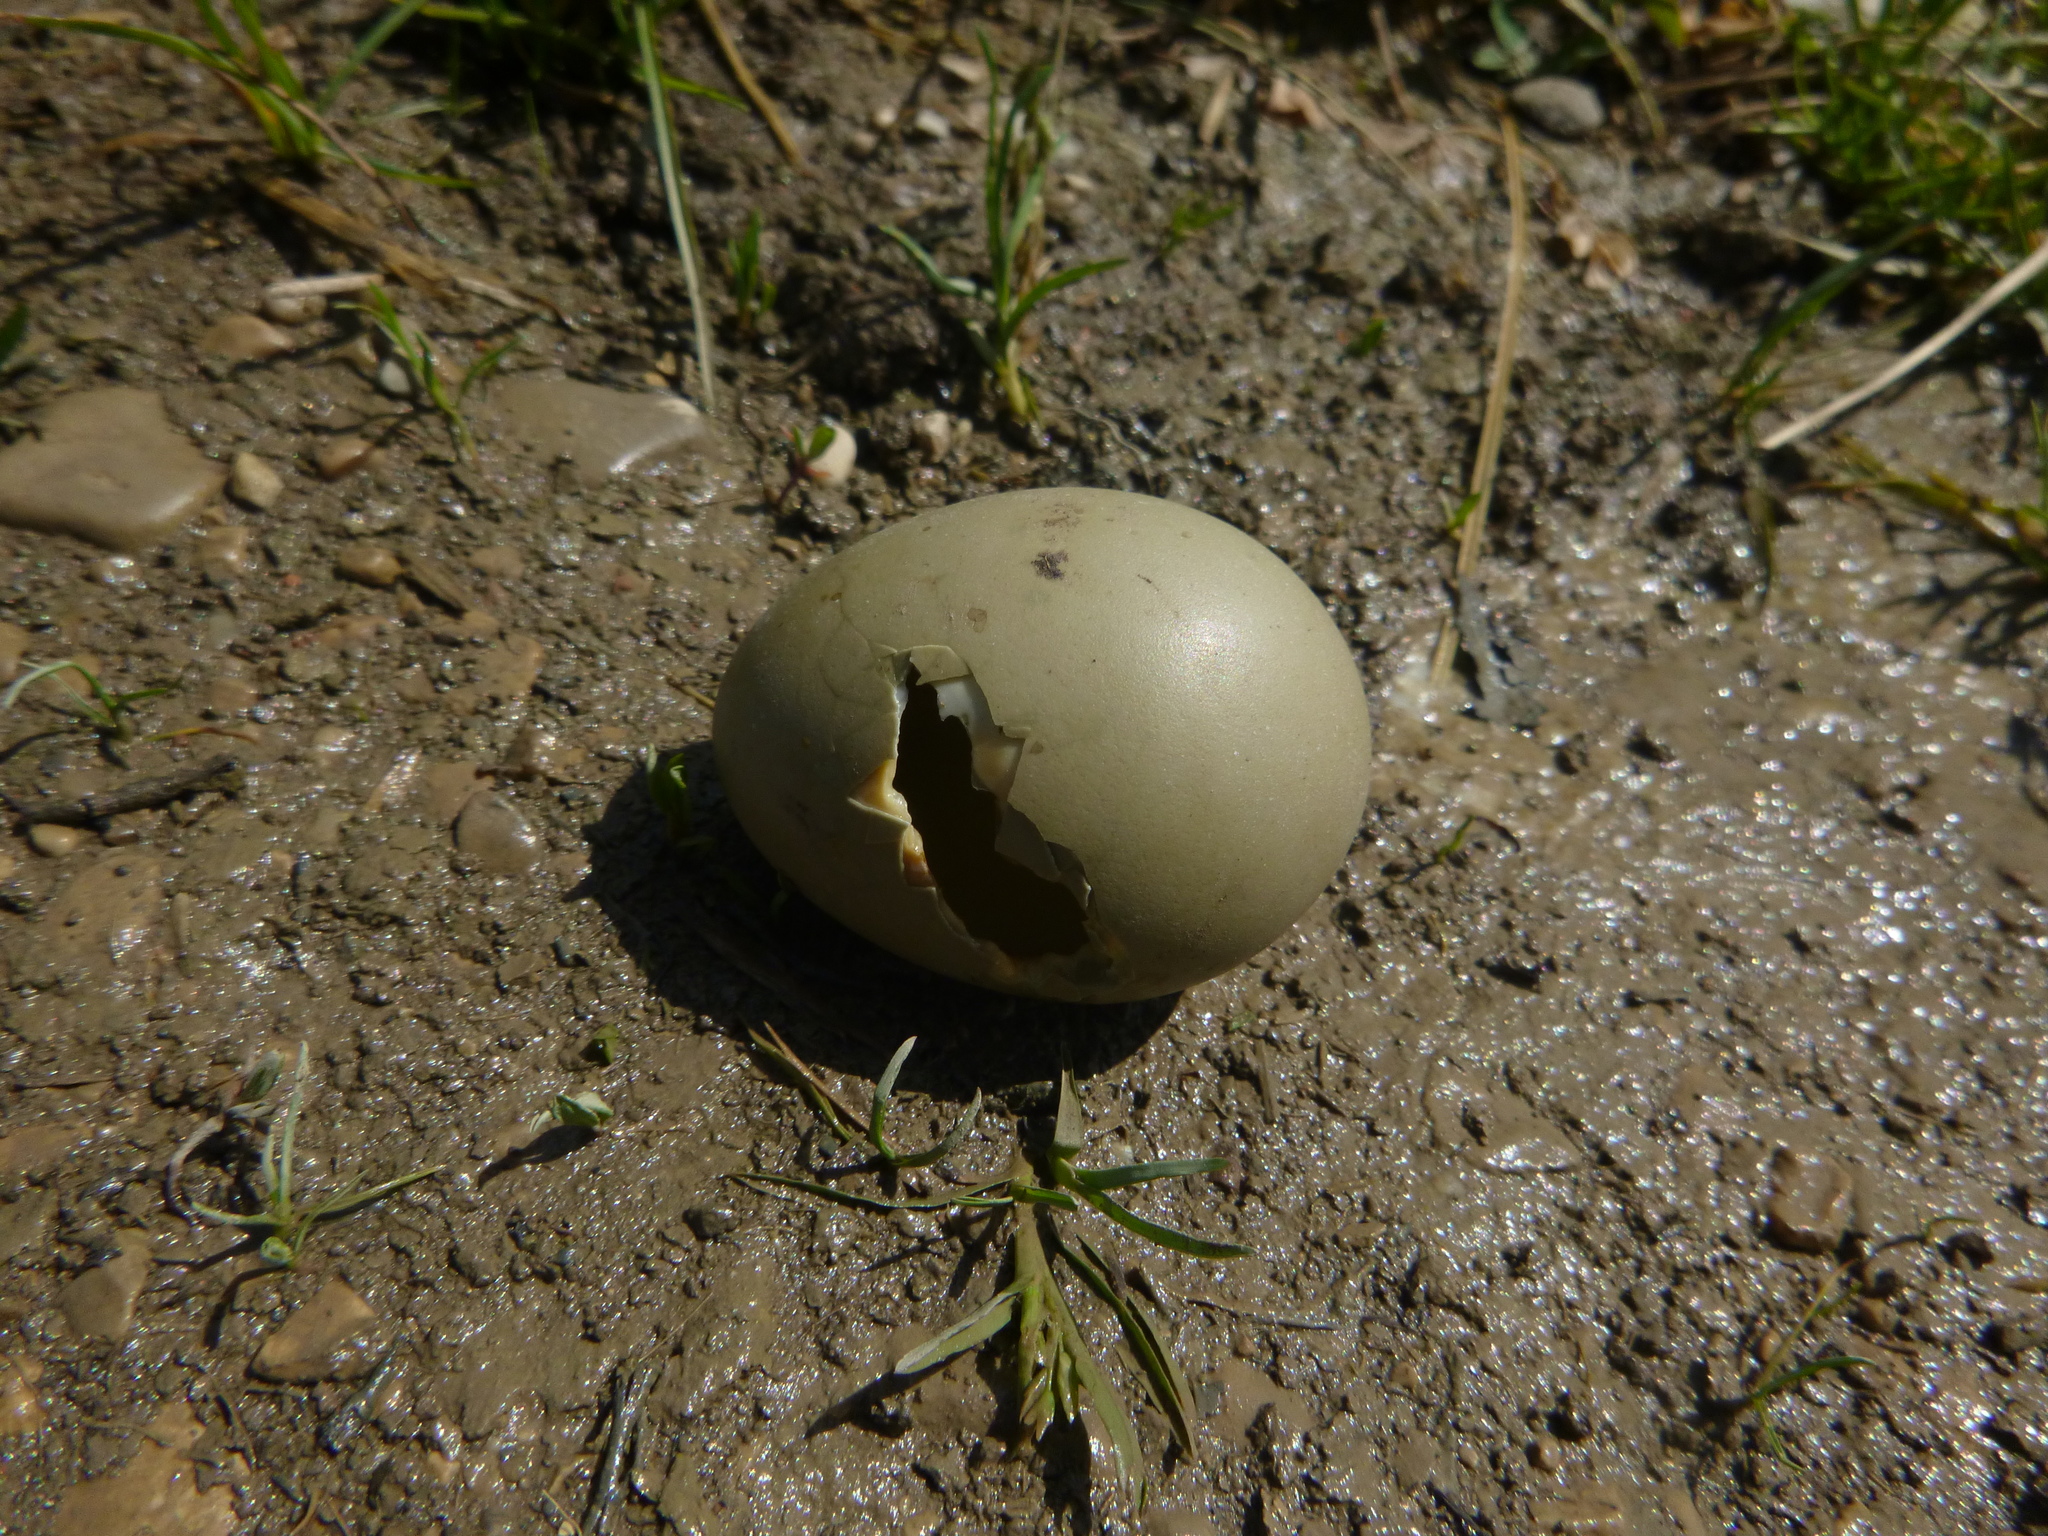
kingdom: Animalia
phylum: Chordata
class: Aves
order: Galliformes
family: Phasianidae
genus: Phasianus
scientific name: Phasianus colchicus
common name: Common pheasant
